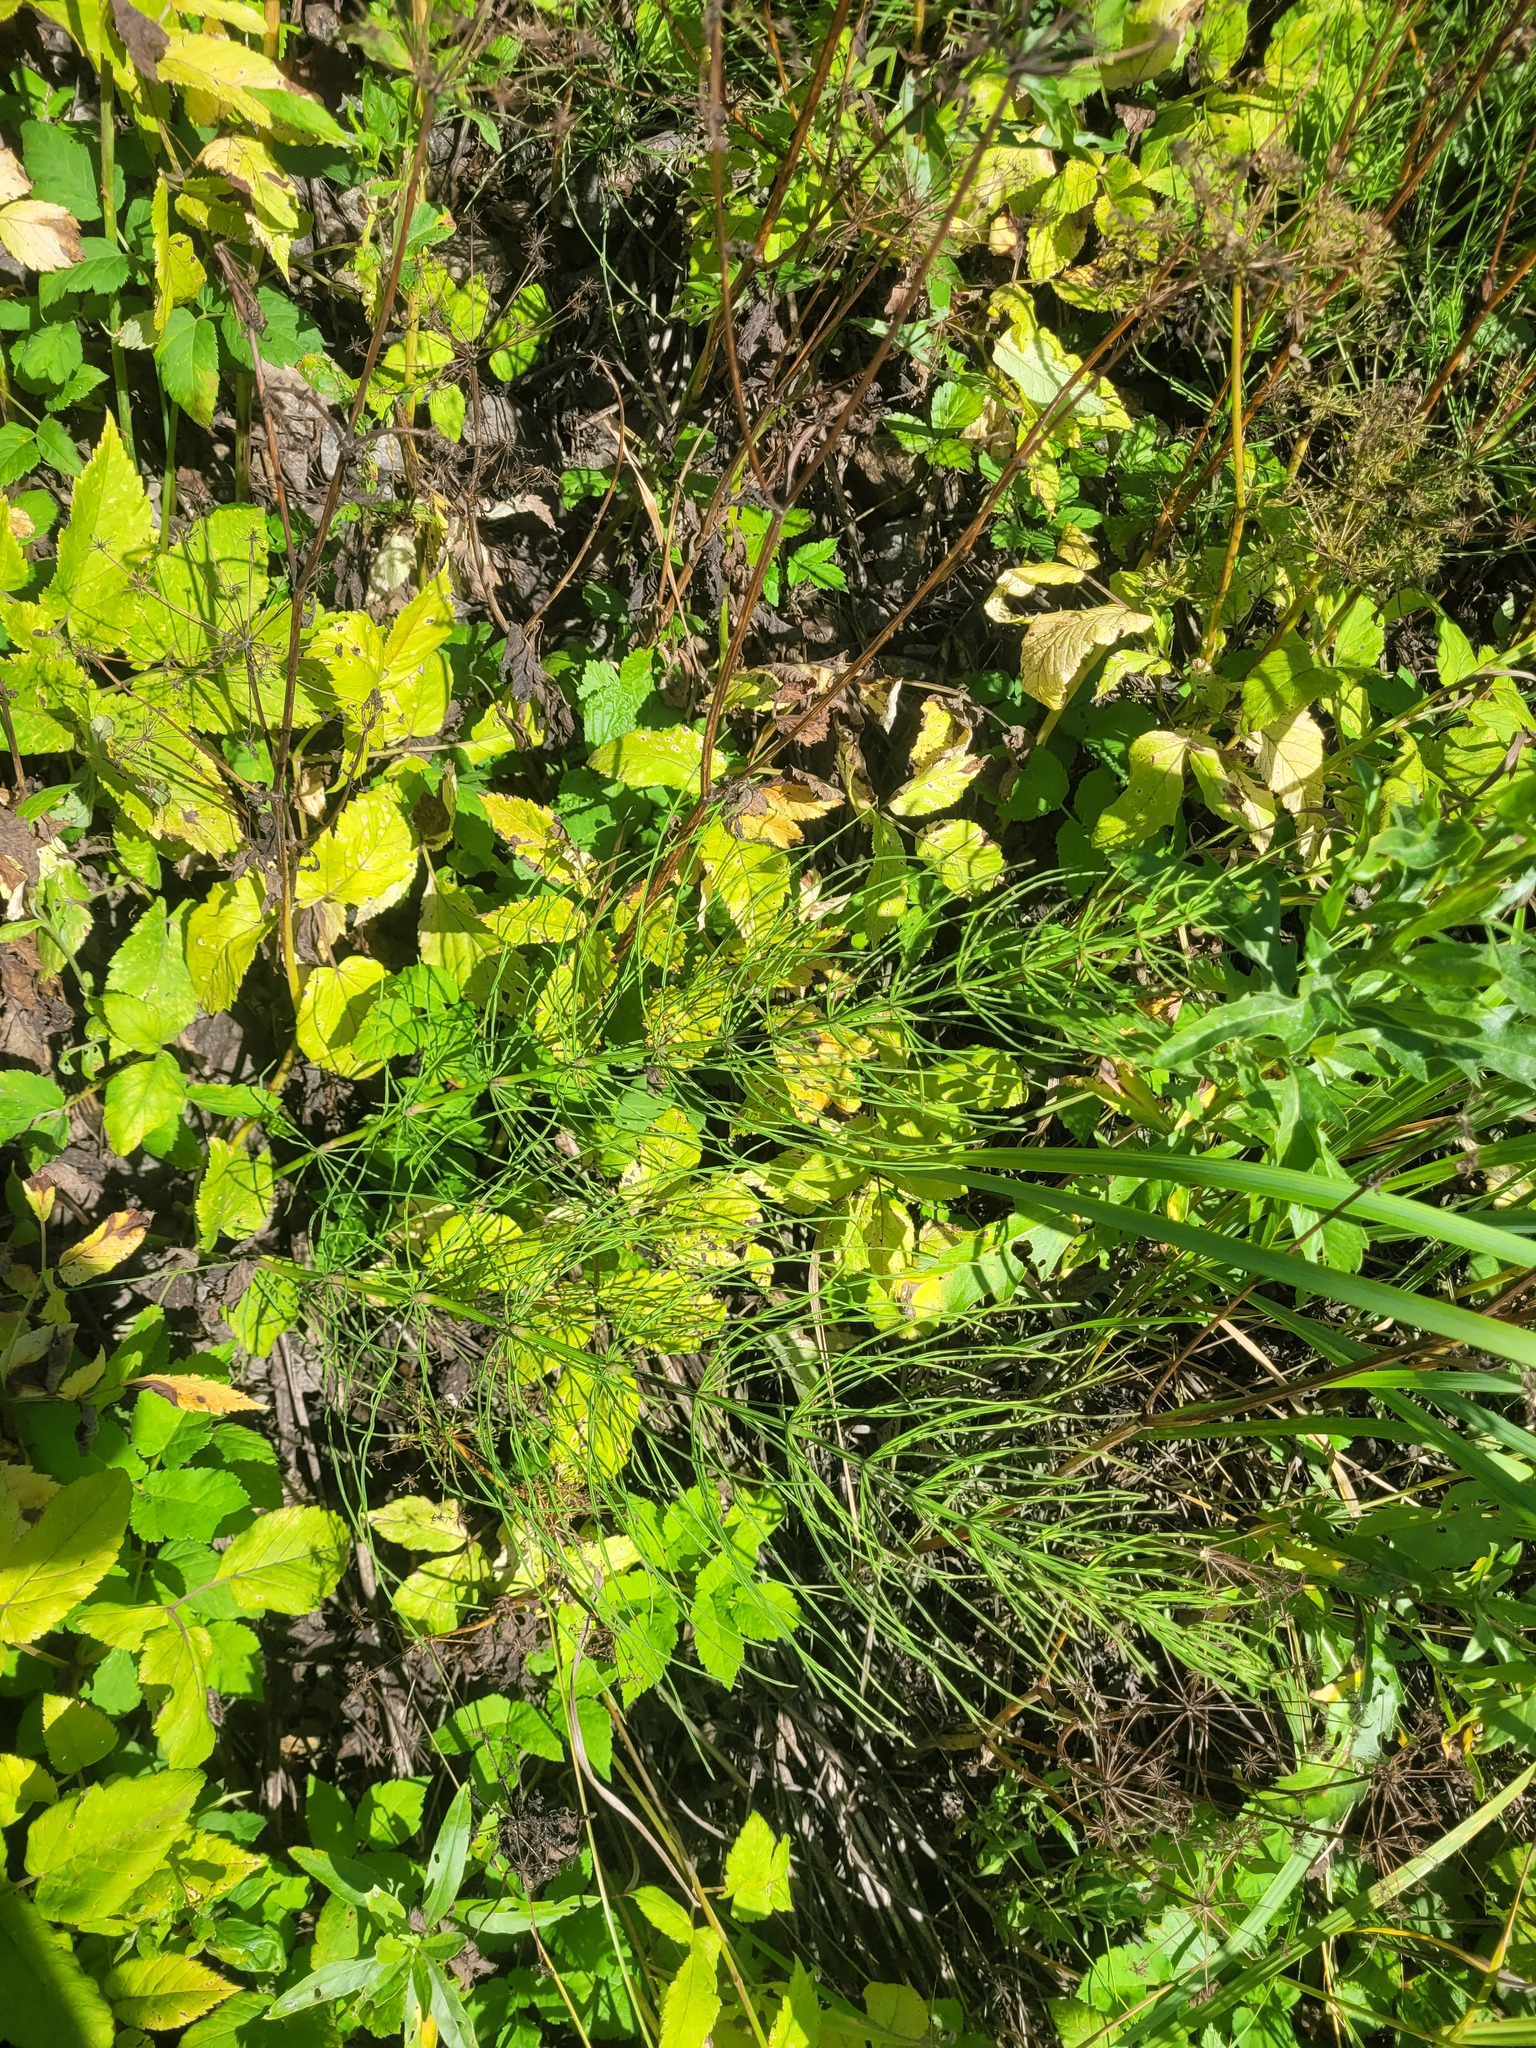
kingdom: Plantae
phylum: Tracheophyta
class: Polypodiopsida
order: Equisetales
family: Equisetaceae
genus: Equisetum
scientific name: Equisetum arvense
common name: Field horsetail
